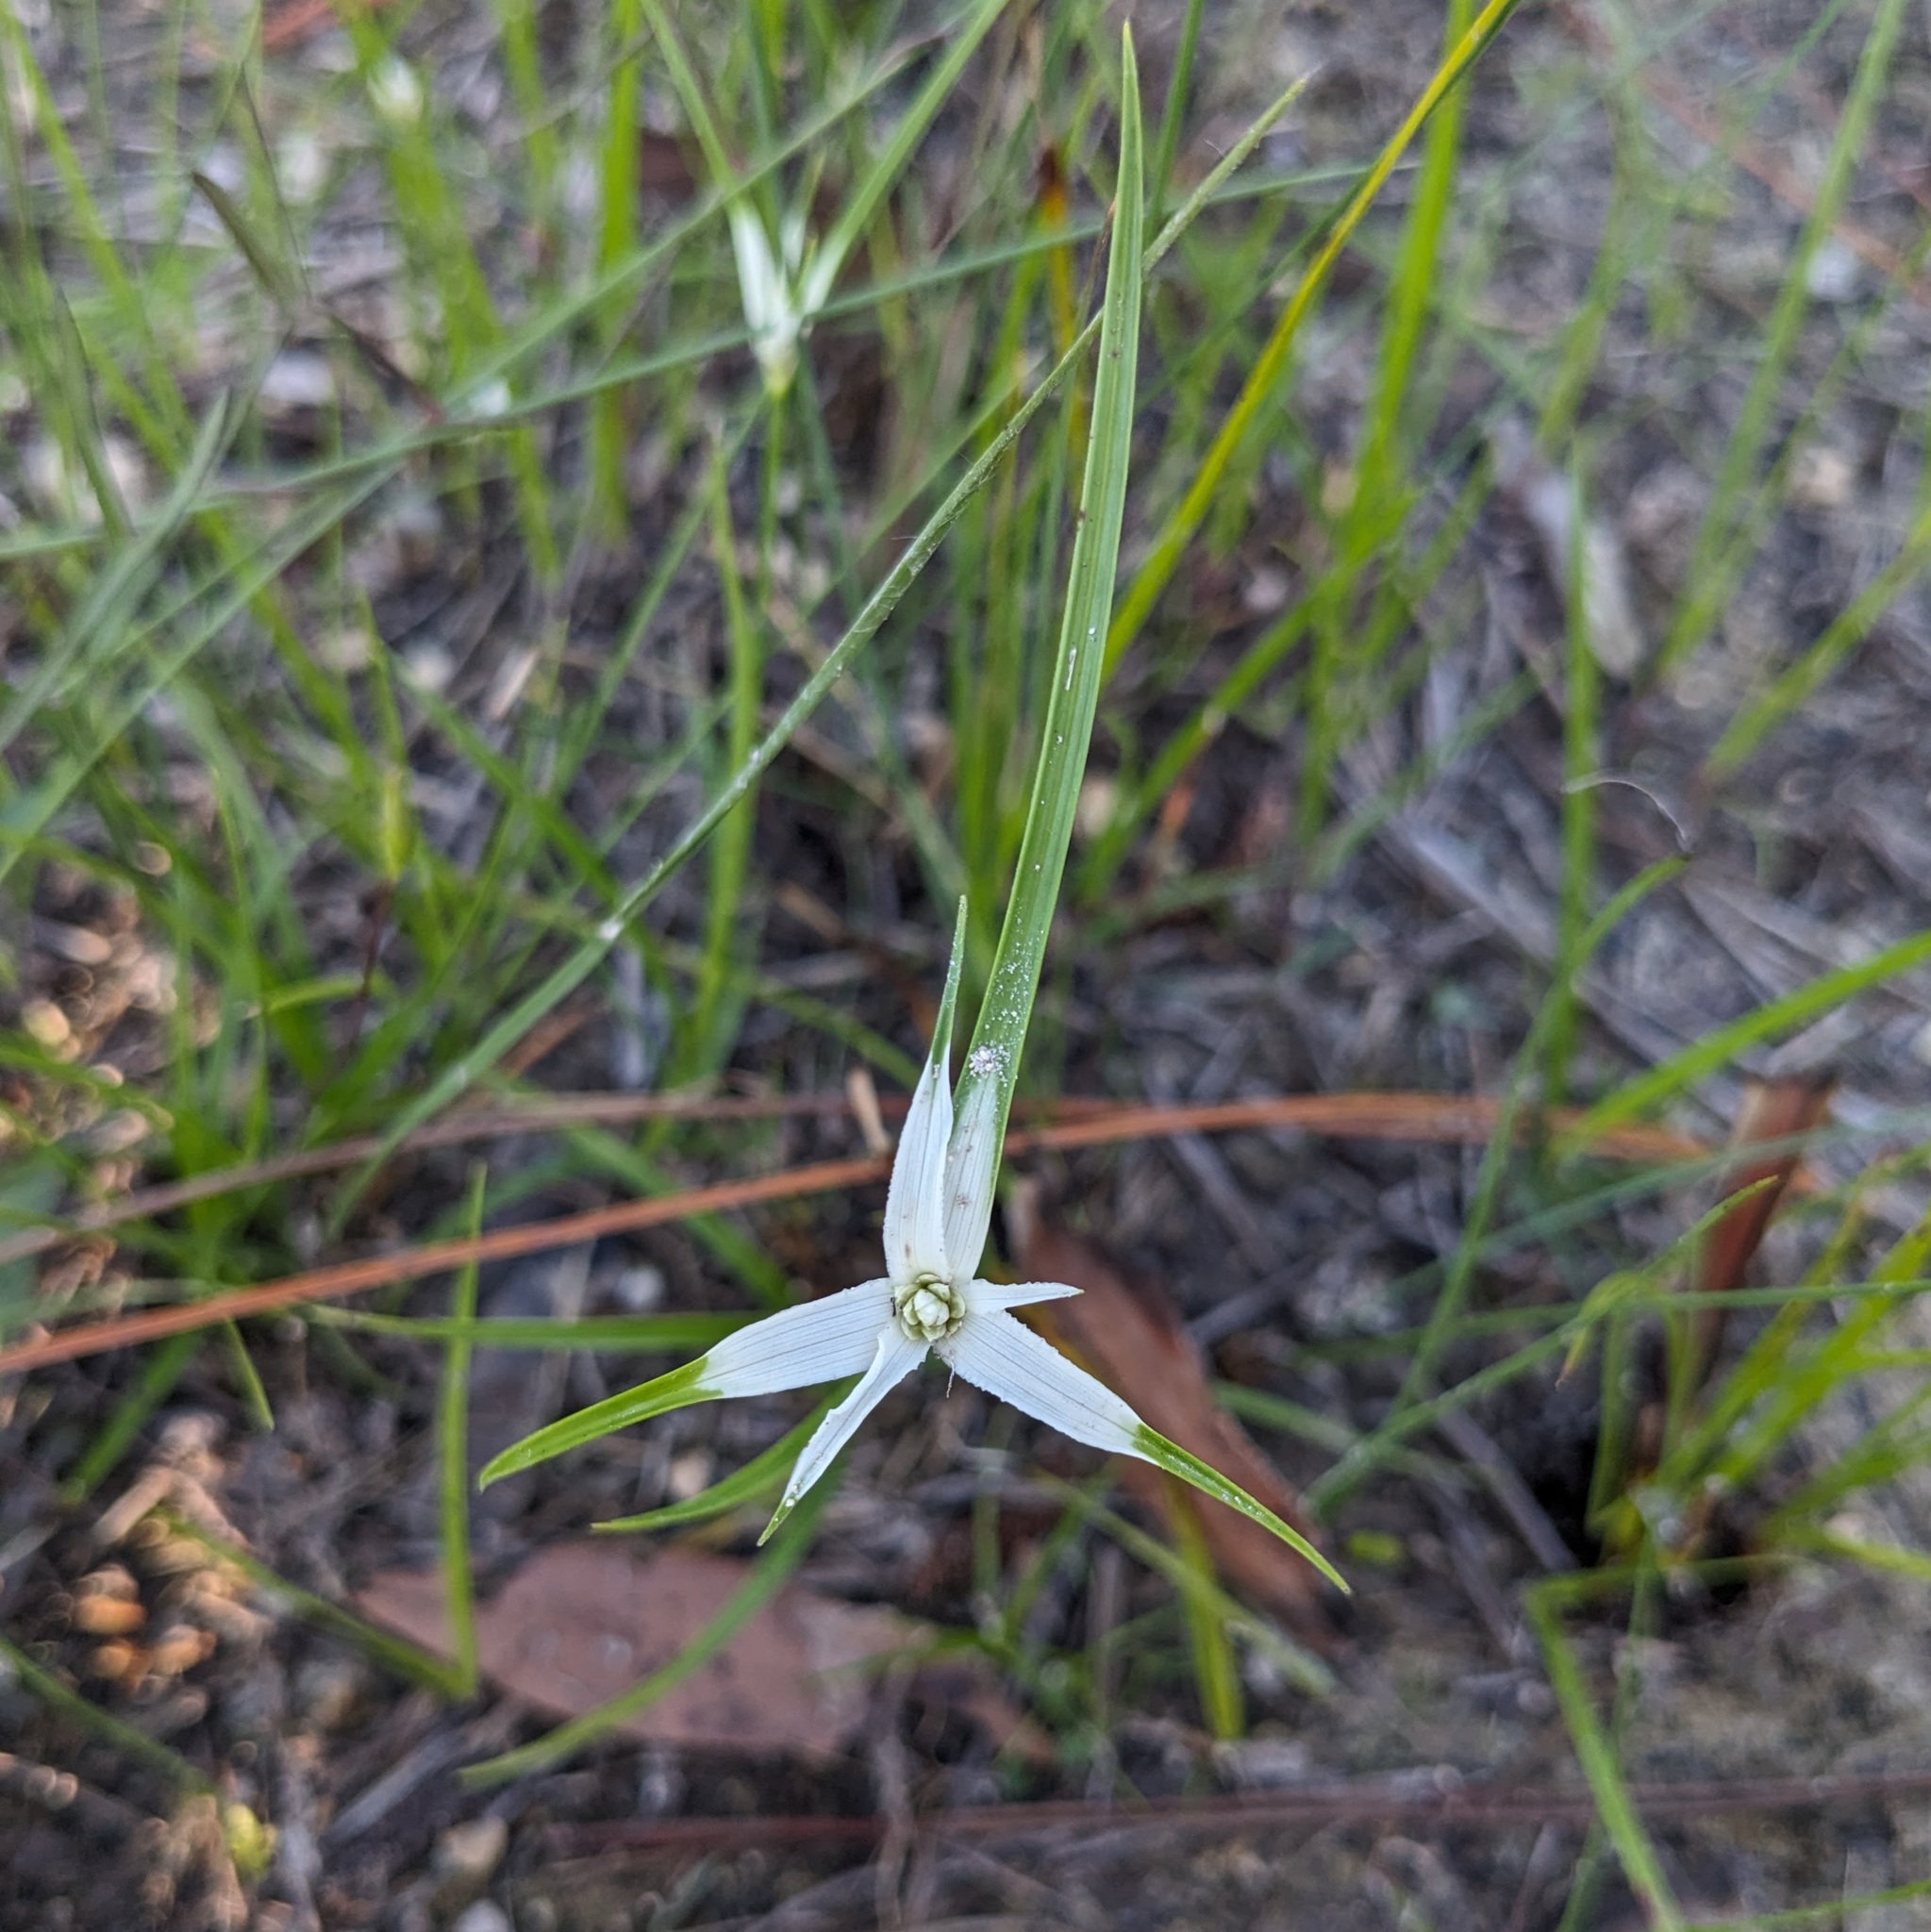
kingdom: Plantae
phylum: Tracheophyta
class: Liliopsida
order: Poales
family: Cyperaceae
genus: Rhynchospora
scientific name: Rhynchospora colorata
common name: Star sedge
